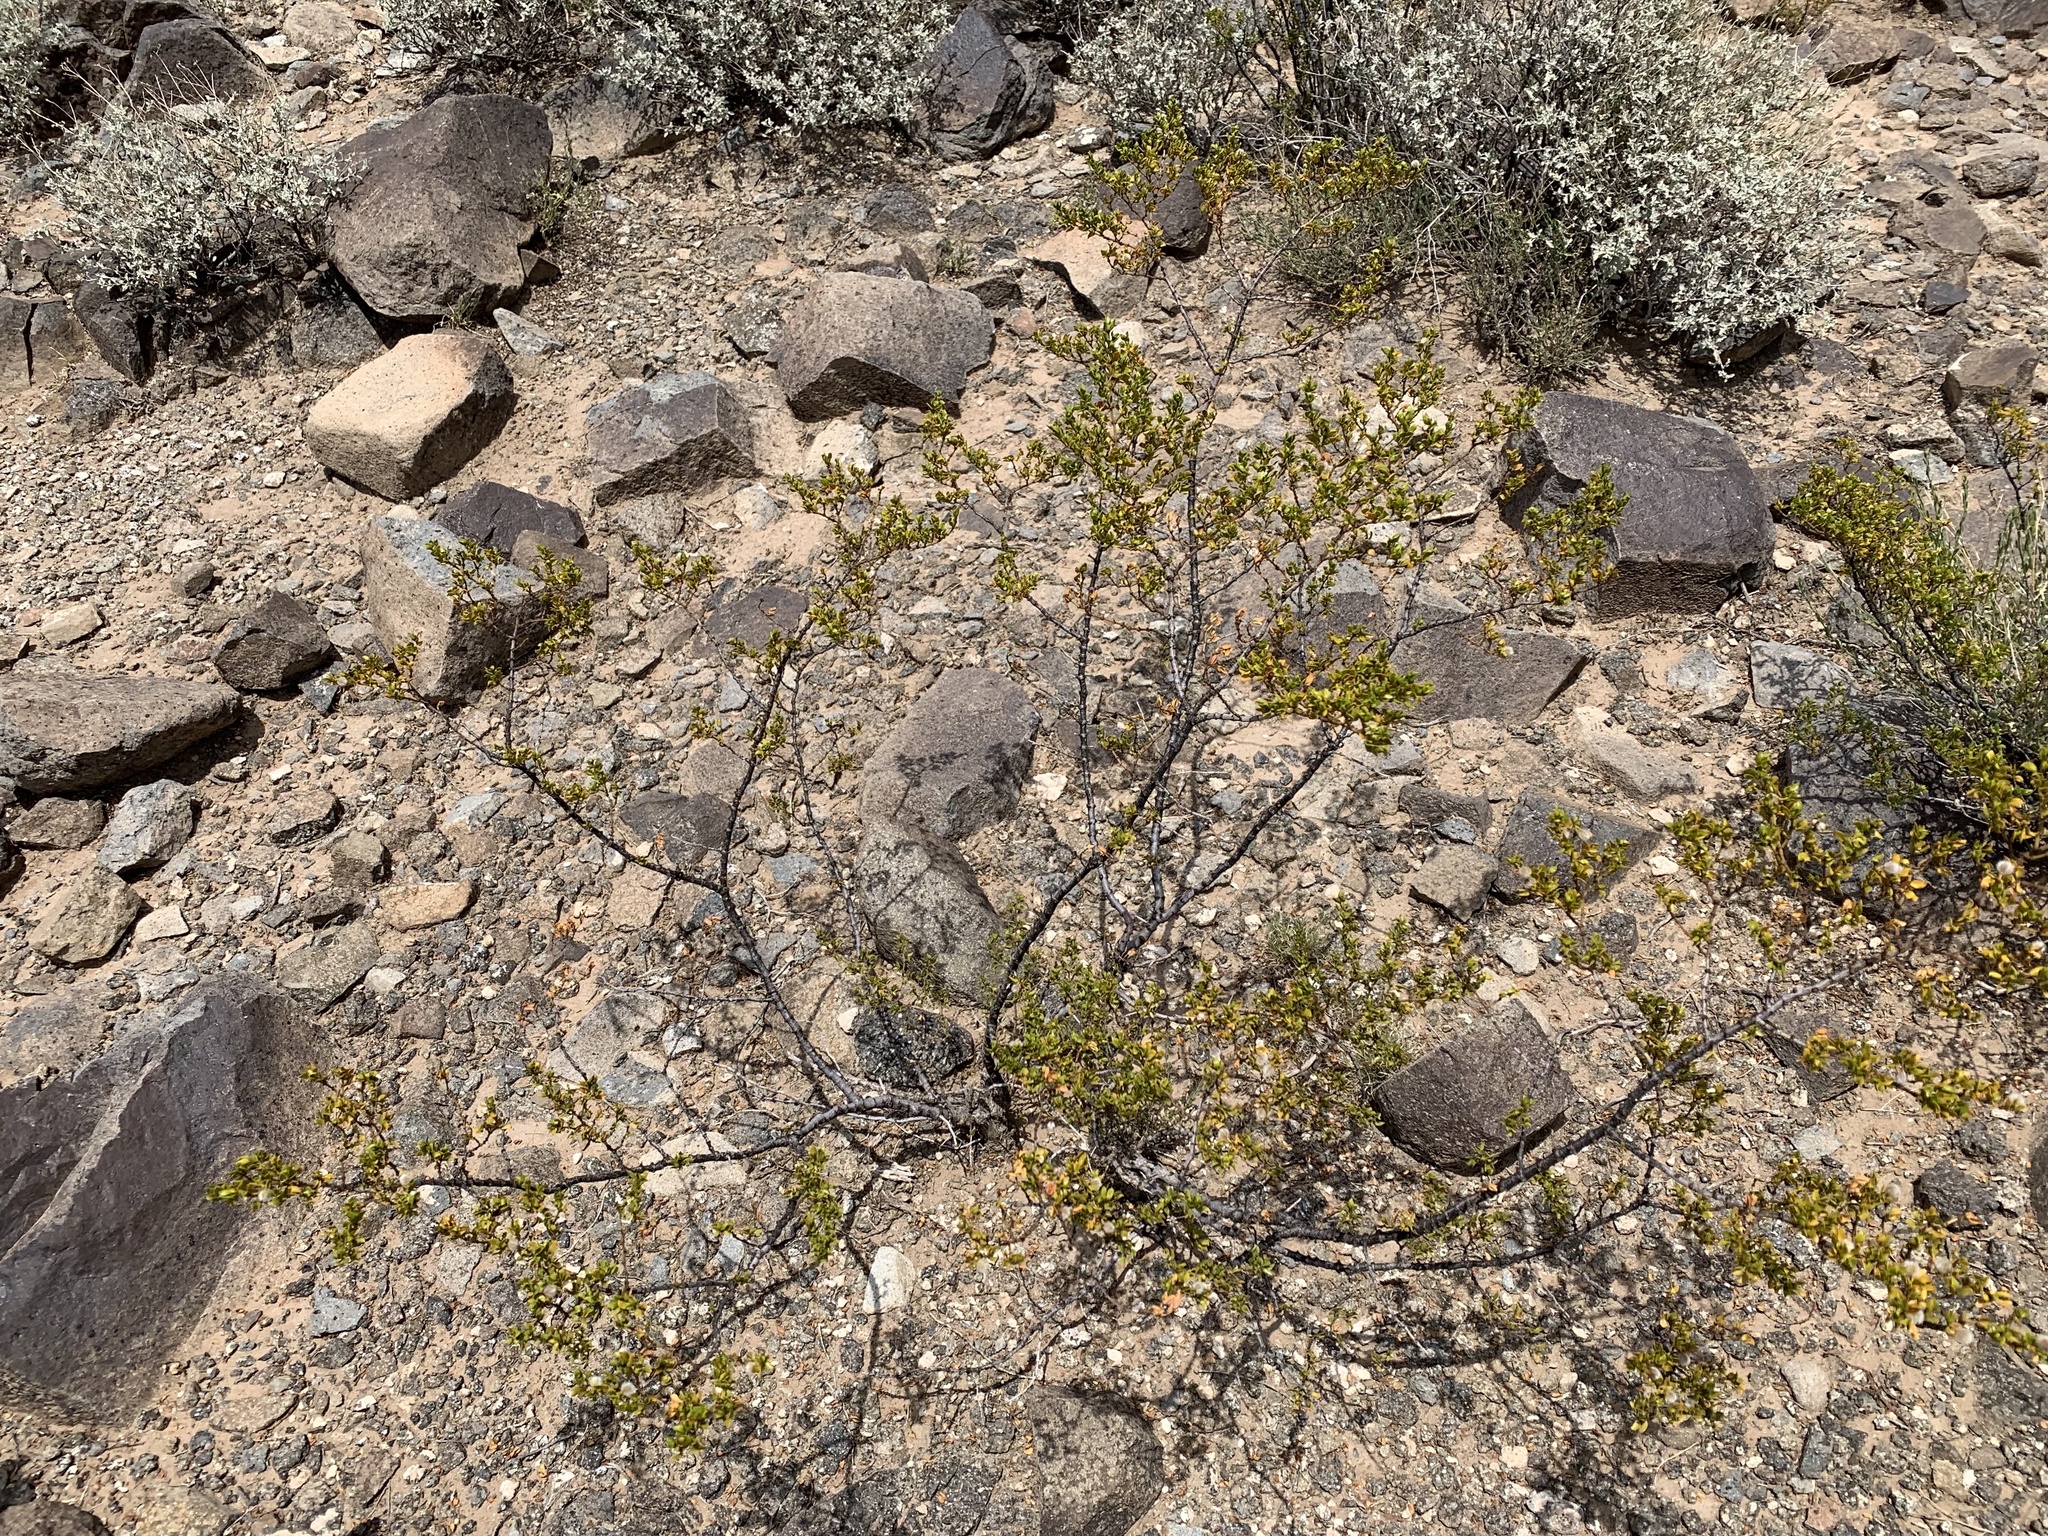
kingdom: Plantae
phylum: Tracheophyta
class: Magnoliopsida
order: Zygophyllales
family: Zygophyllaceae
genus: Larrea
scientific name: Larrea tridentata
